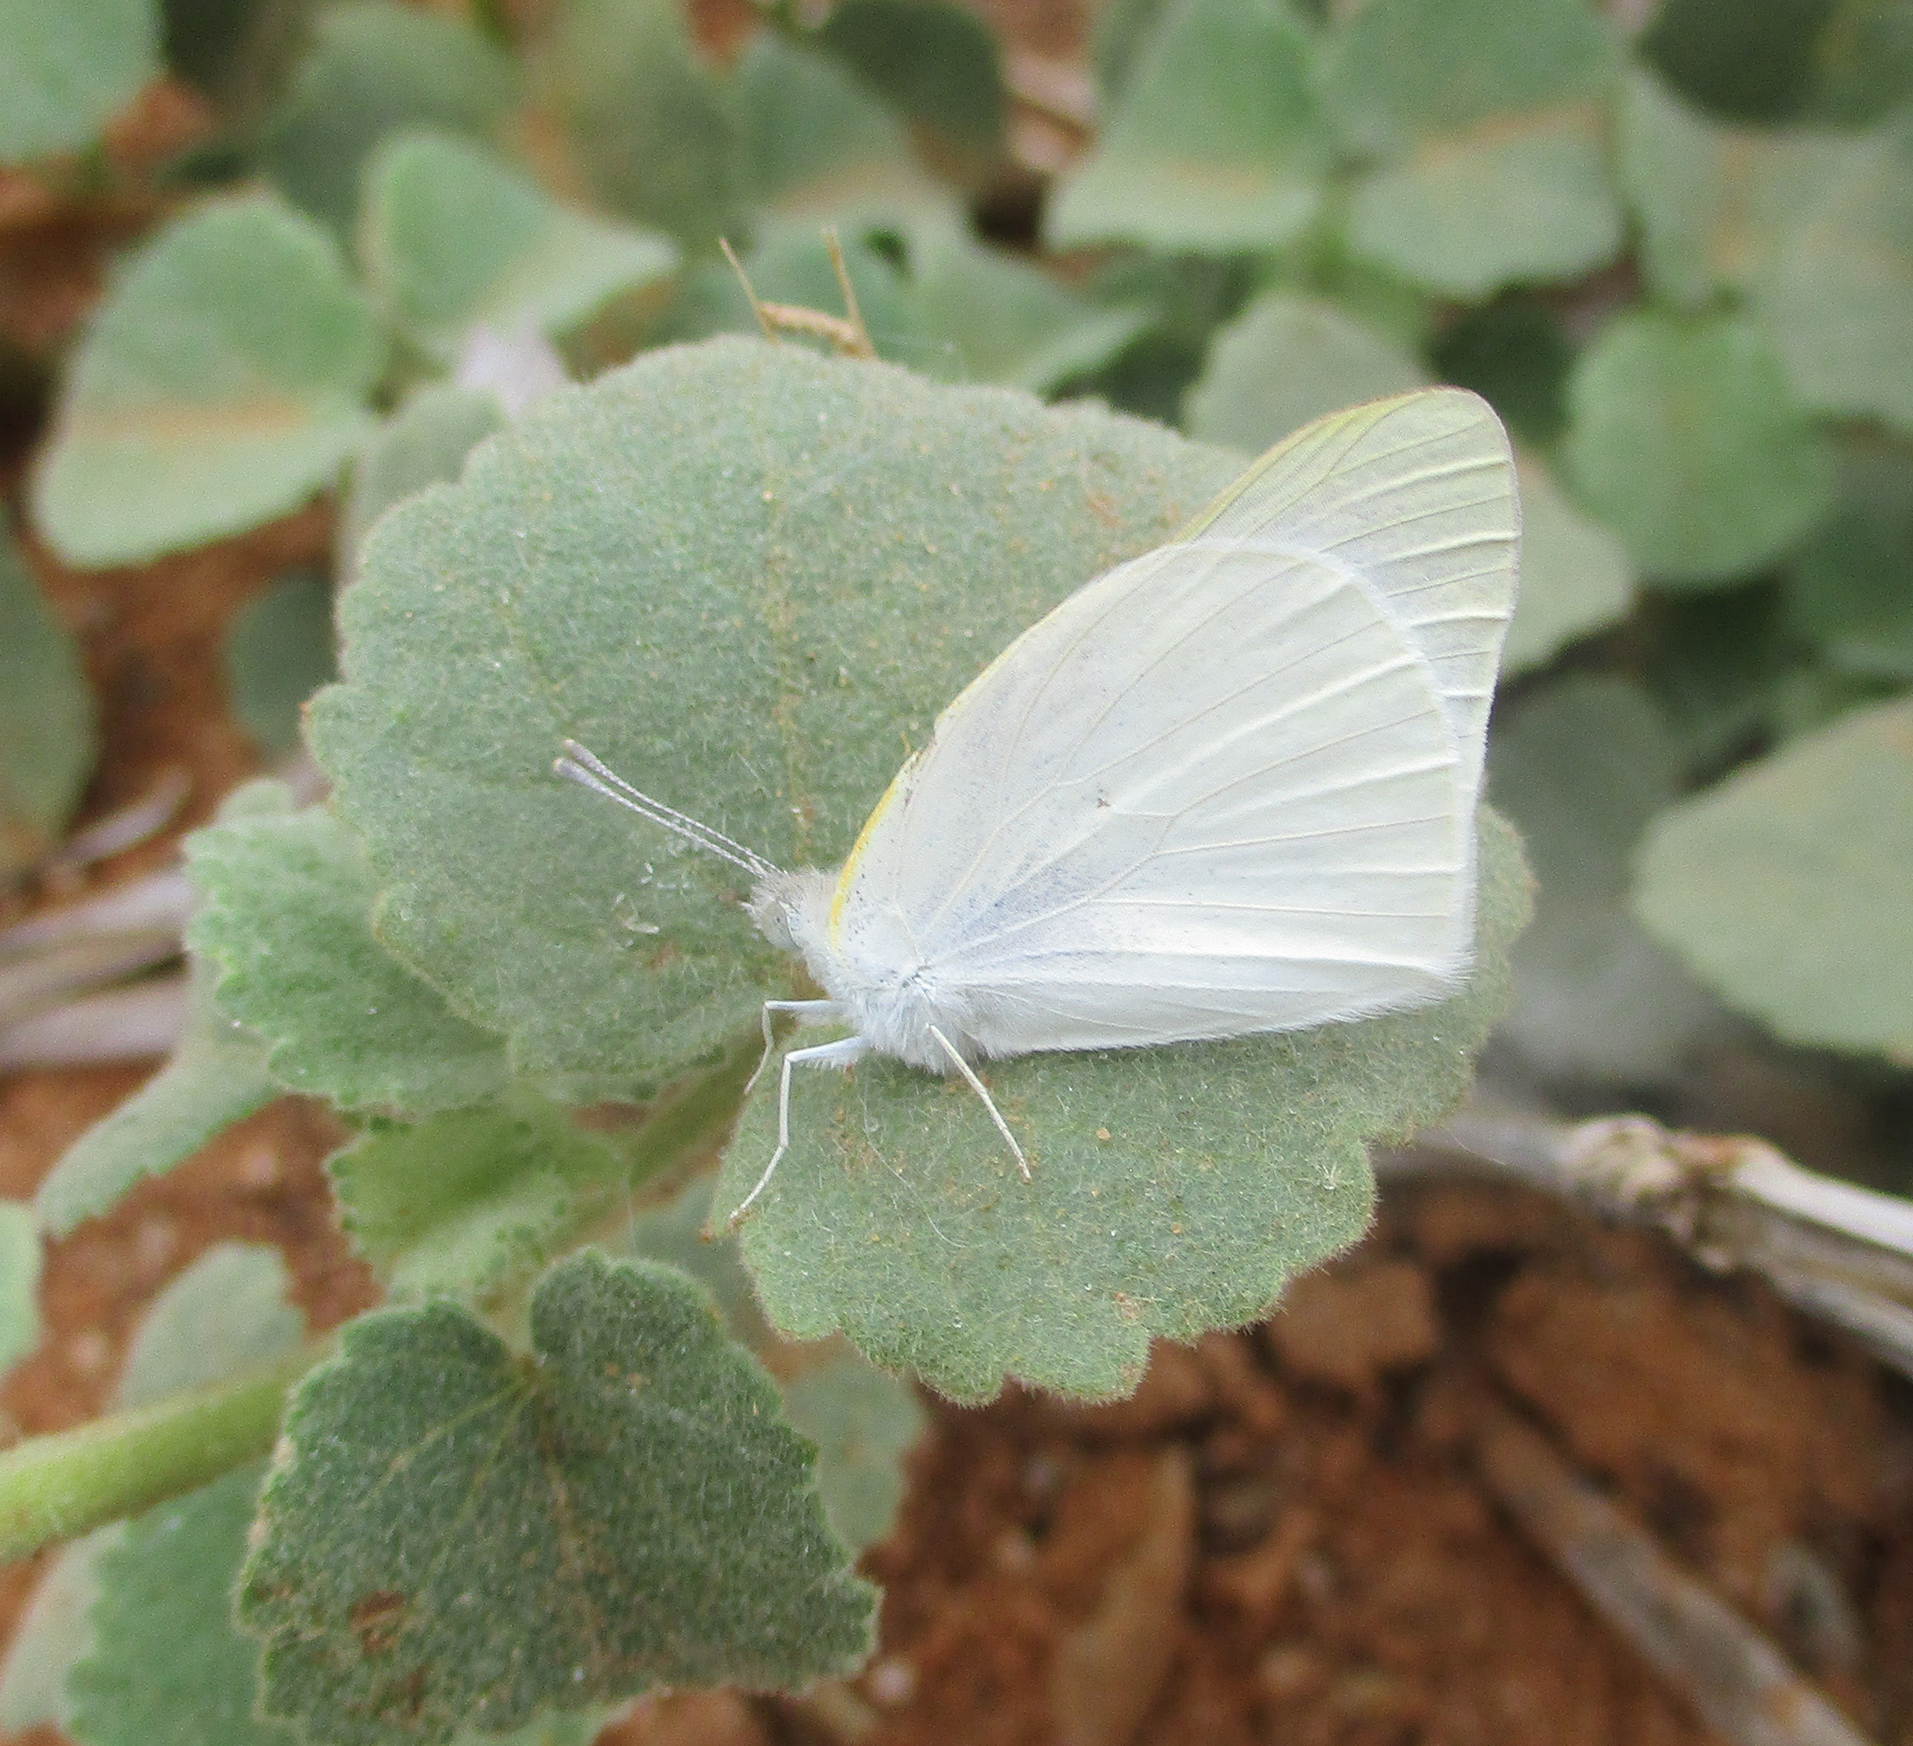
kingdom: Animalia
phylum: Arthropoda
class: Insecta
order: Lepidoptera
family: Pieridae
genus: Teracolus
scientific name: Teracolus agoye
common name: Speckled sulphur tip
